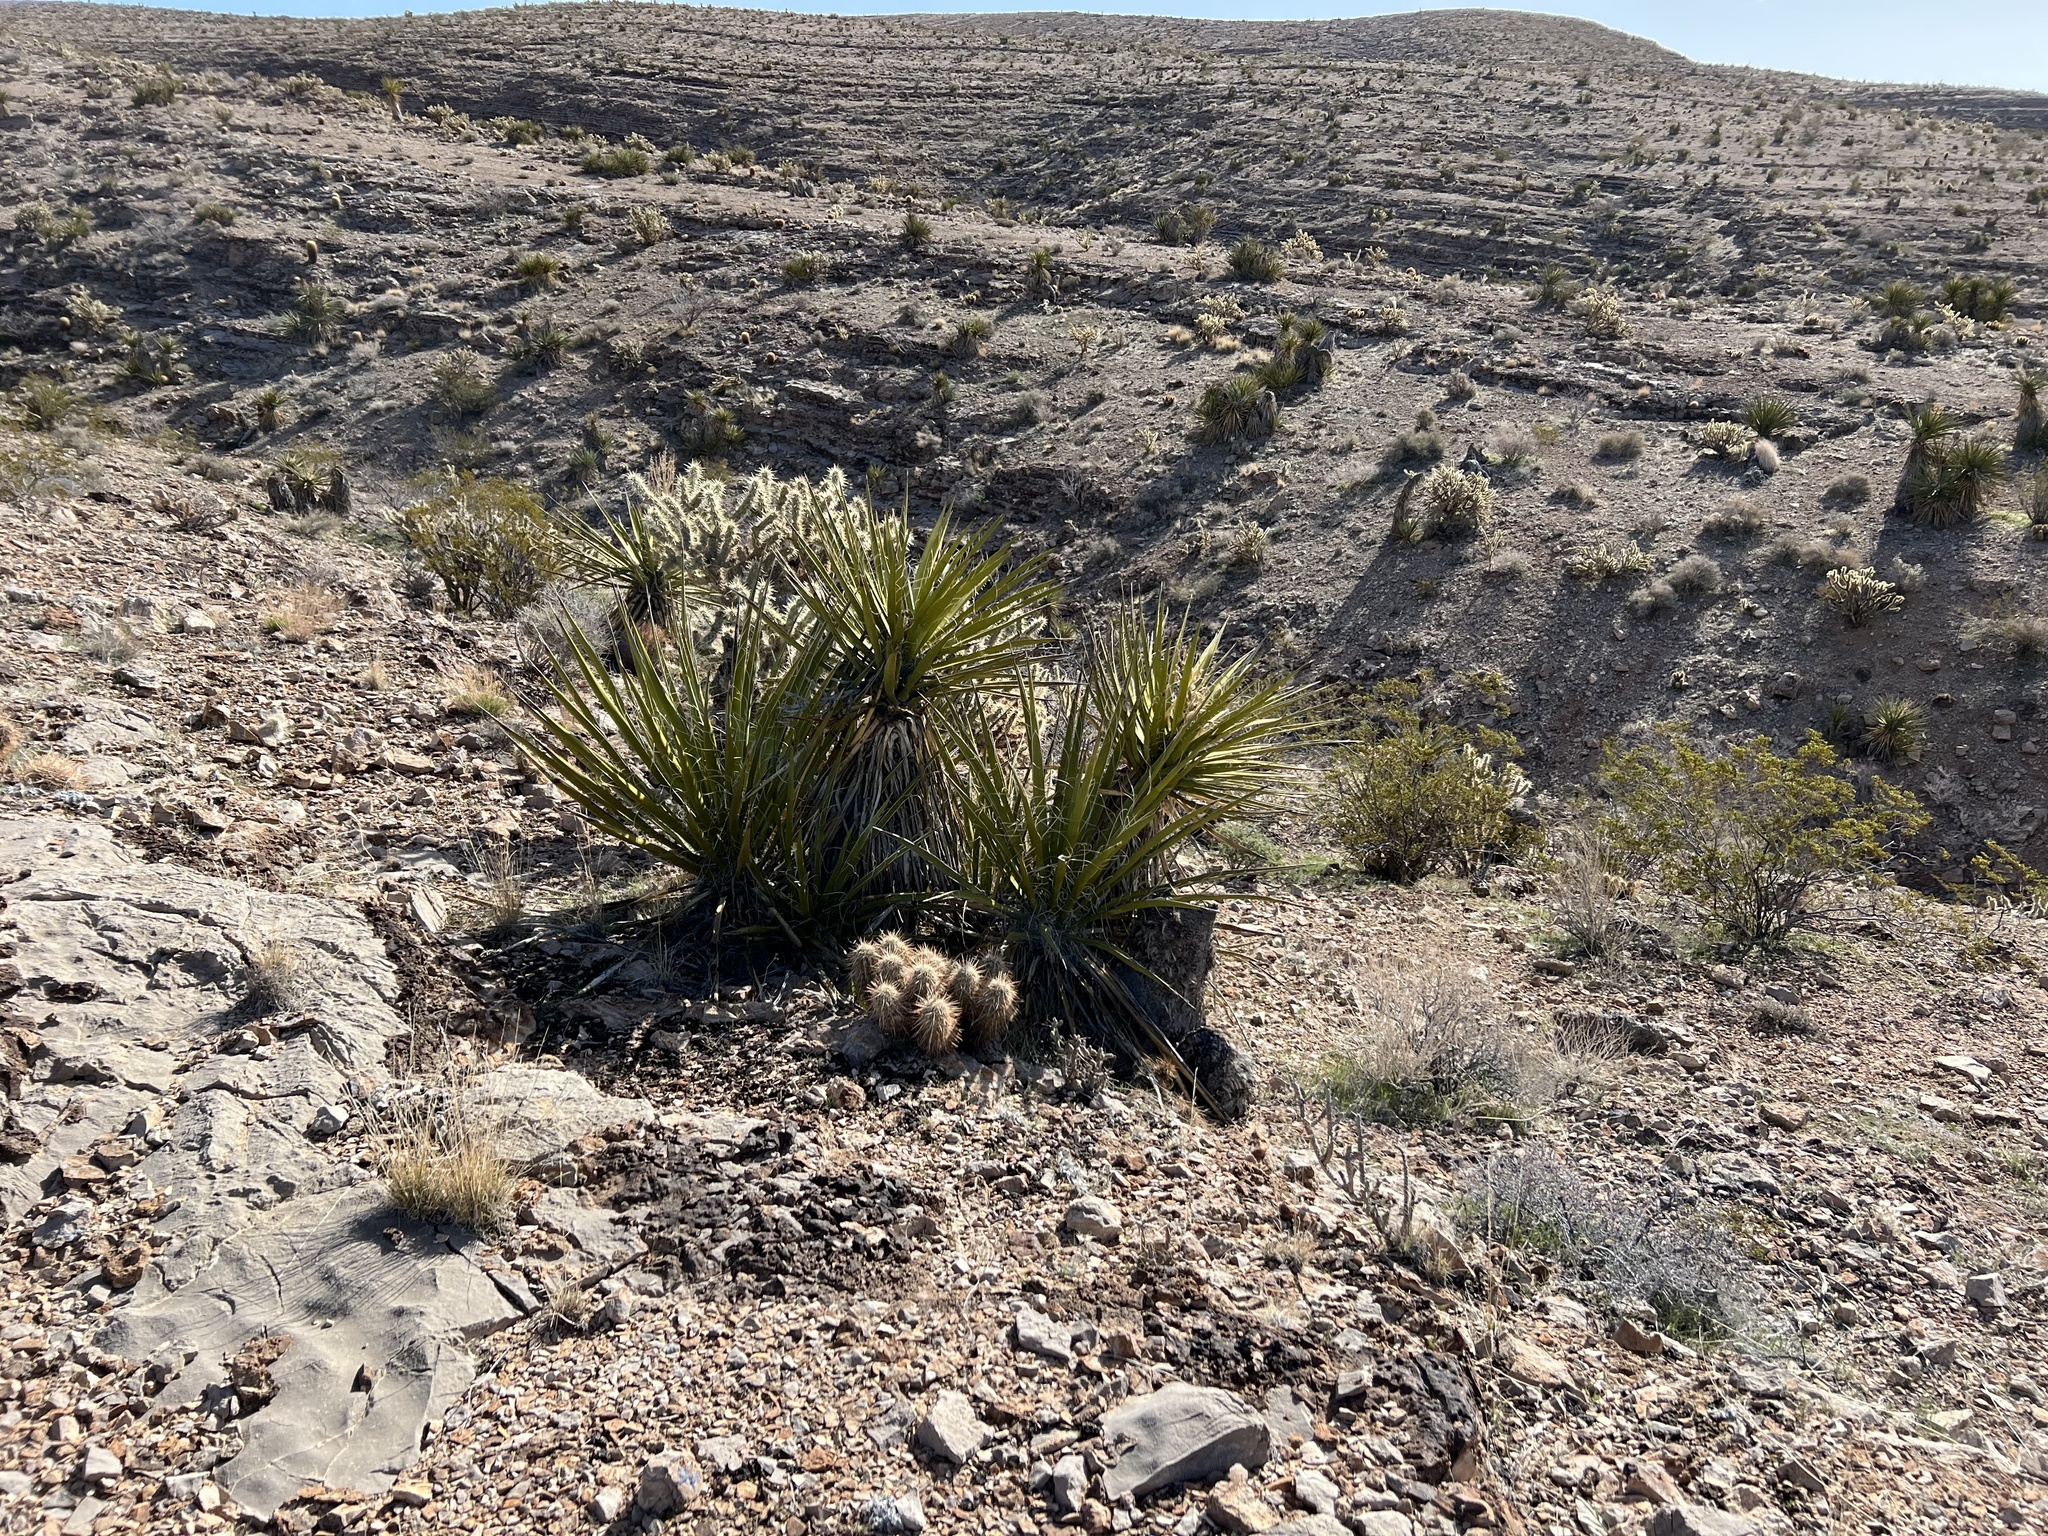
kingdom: Plantae
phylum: Tracheophyta
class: Liliopsida
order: Asparagales
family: Asparagaceae
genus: Yucca
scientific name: Yucca schidigera
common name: Mojave yucca
